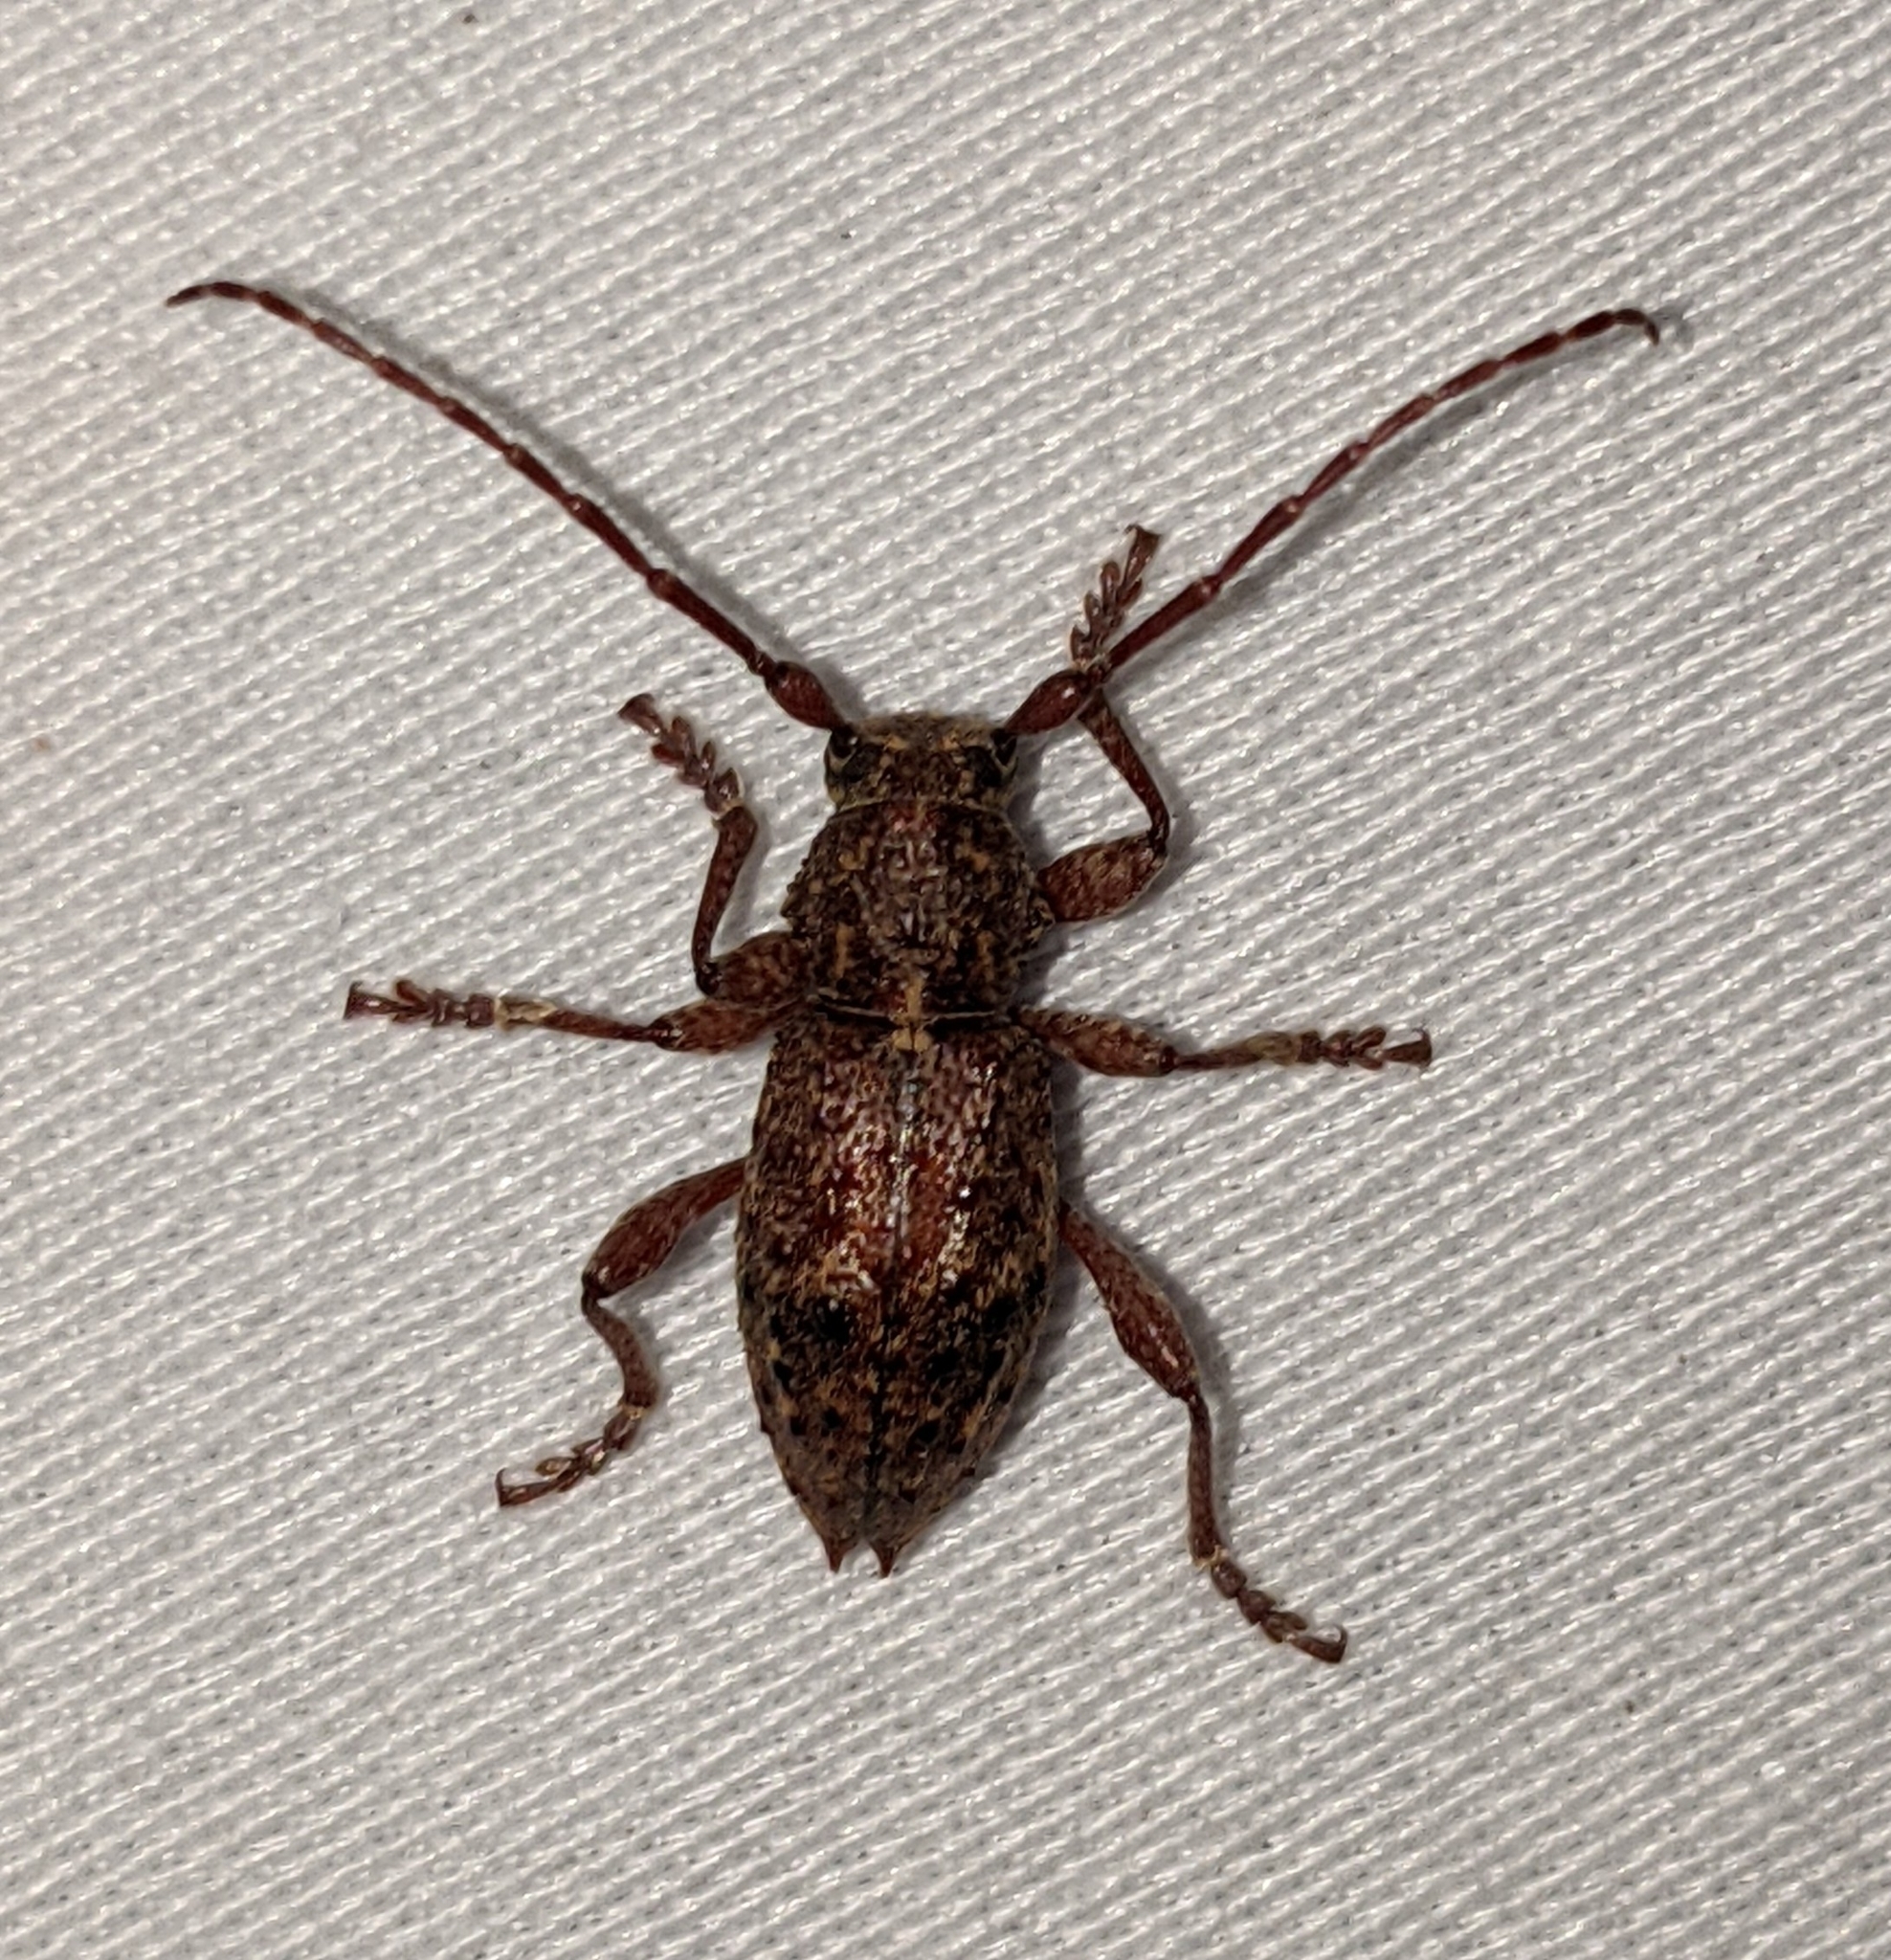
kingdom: Animalia
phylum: Arthropoda
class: Insecta
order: Coleoptera
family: Cerambycidae
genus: Plectrura
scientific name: Plectrura spinicauda
